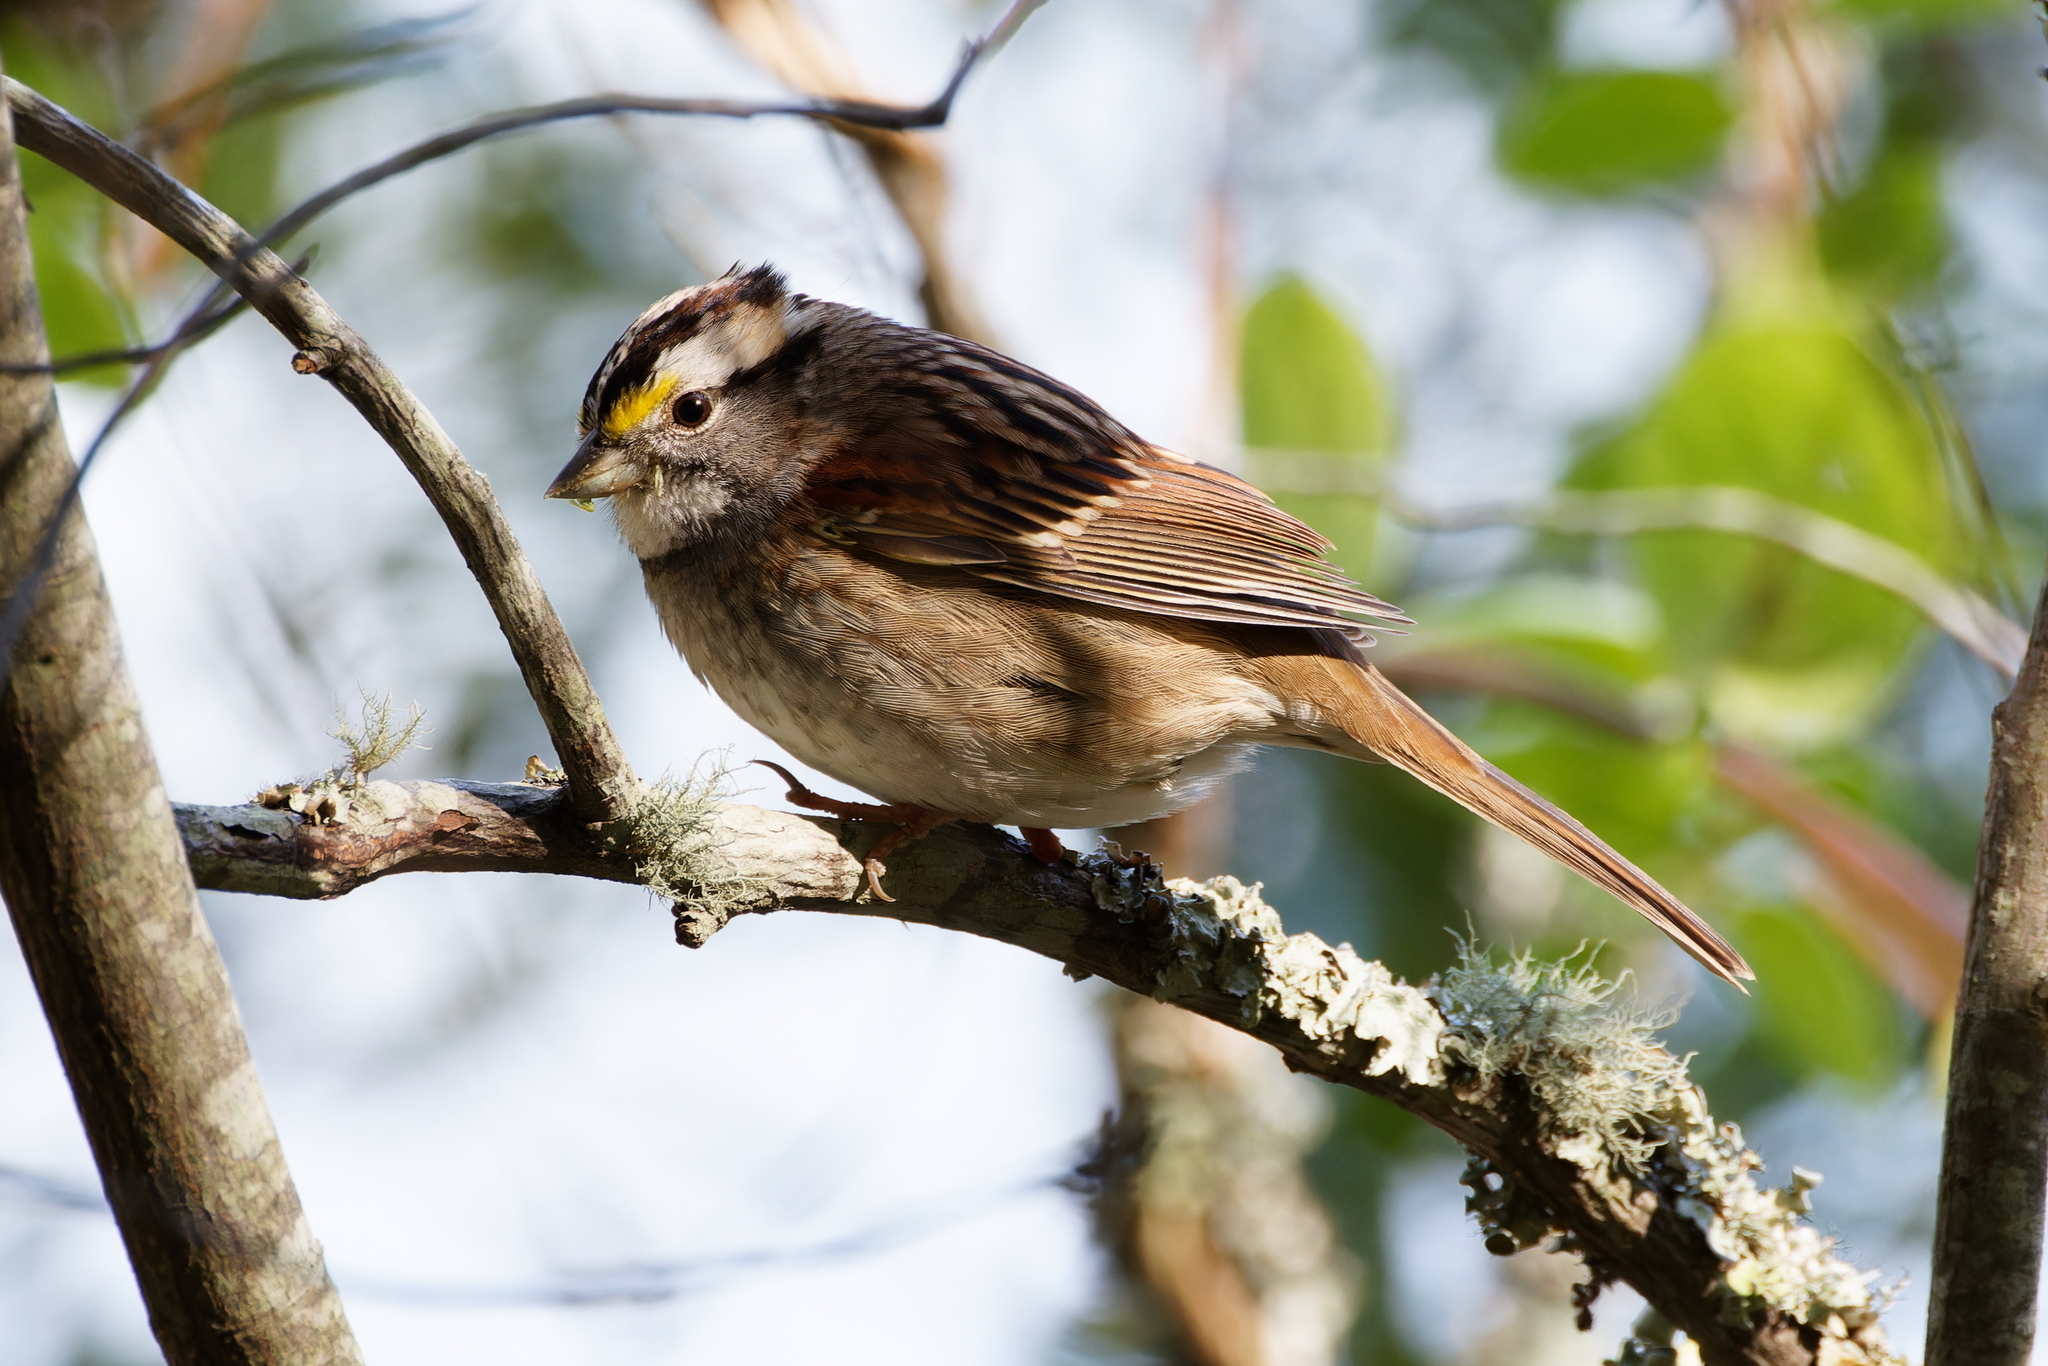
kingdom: Animalia
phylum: Chordata
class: Aves
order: Passeriformes
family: Passerellidae
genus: Zonotrichia
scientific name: Zonotrichia albicollis
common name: White-throated sparrow
